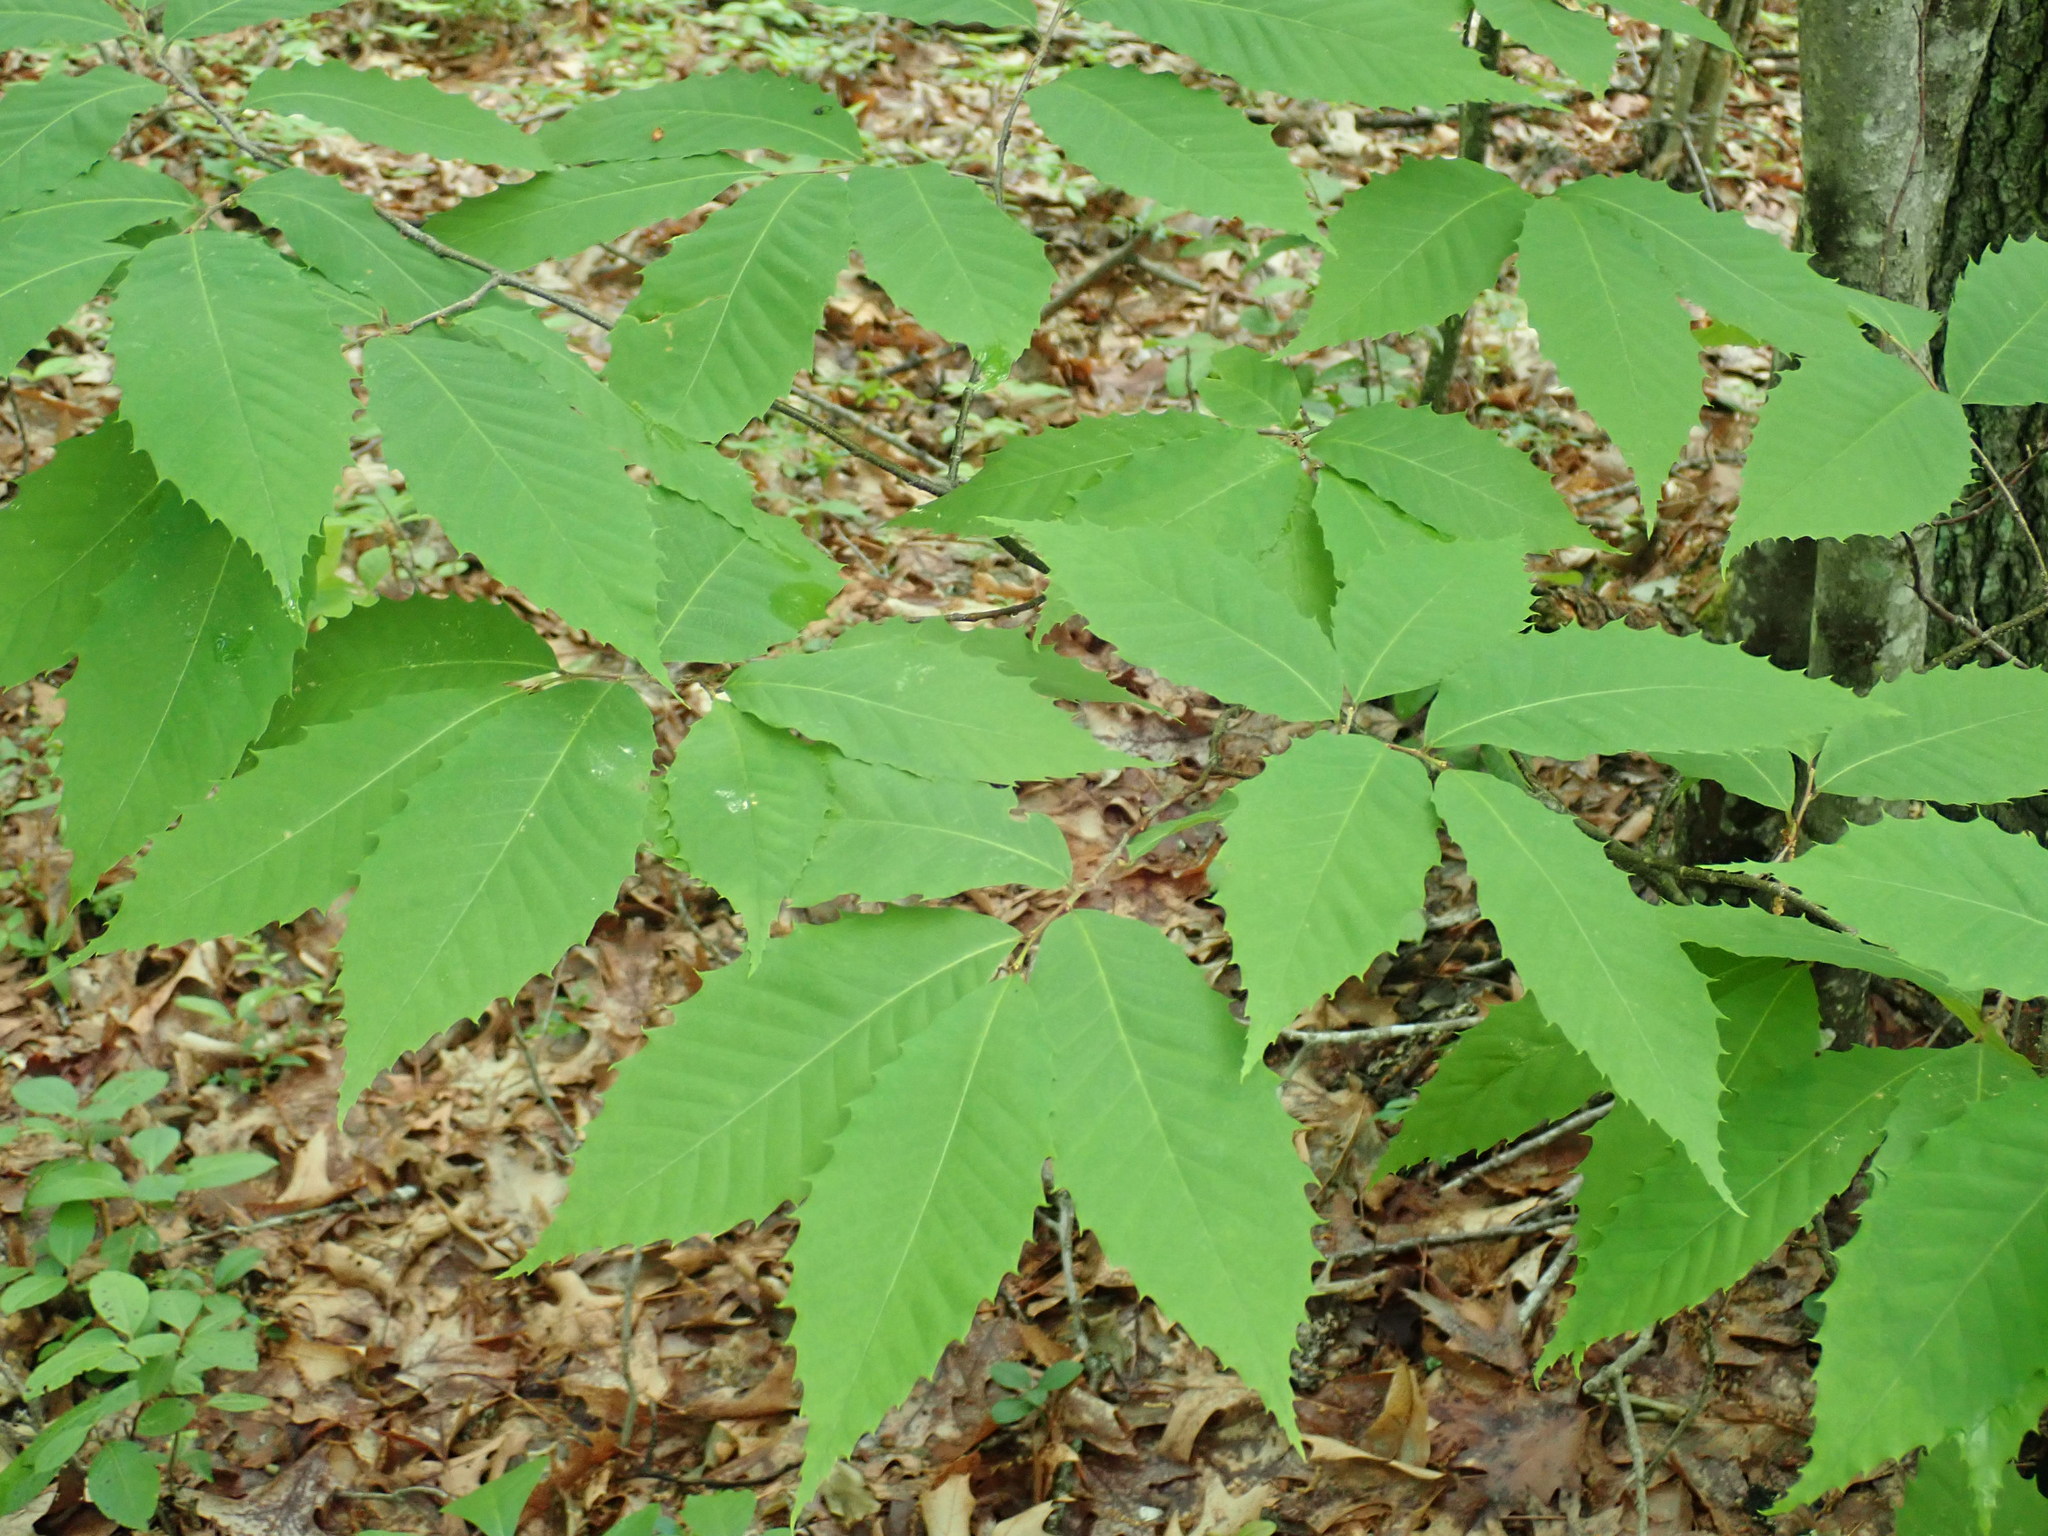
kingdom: Plantae
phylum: Tracheophyta
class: Magnoliopsida
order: Fagales
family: Fagaceae
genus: Castanea
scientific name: Castanea dentata
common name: American chestnut
